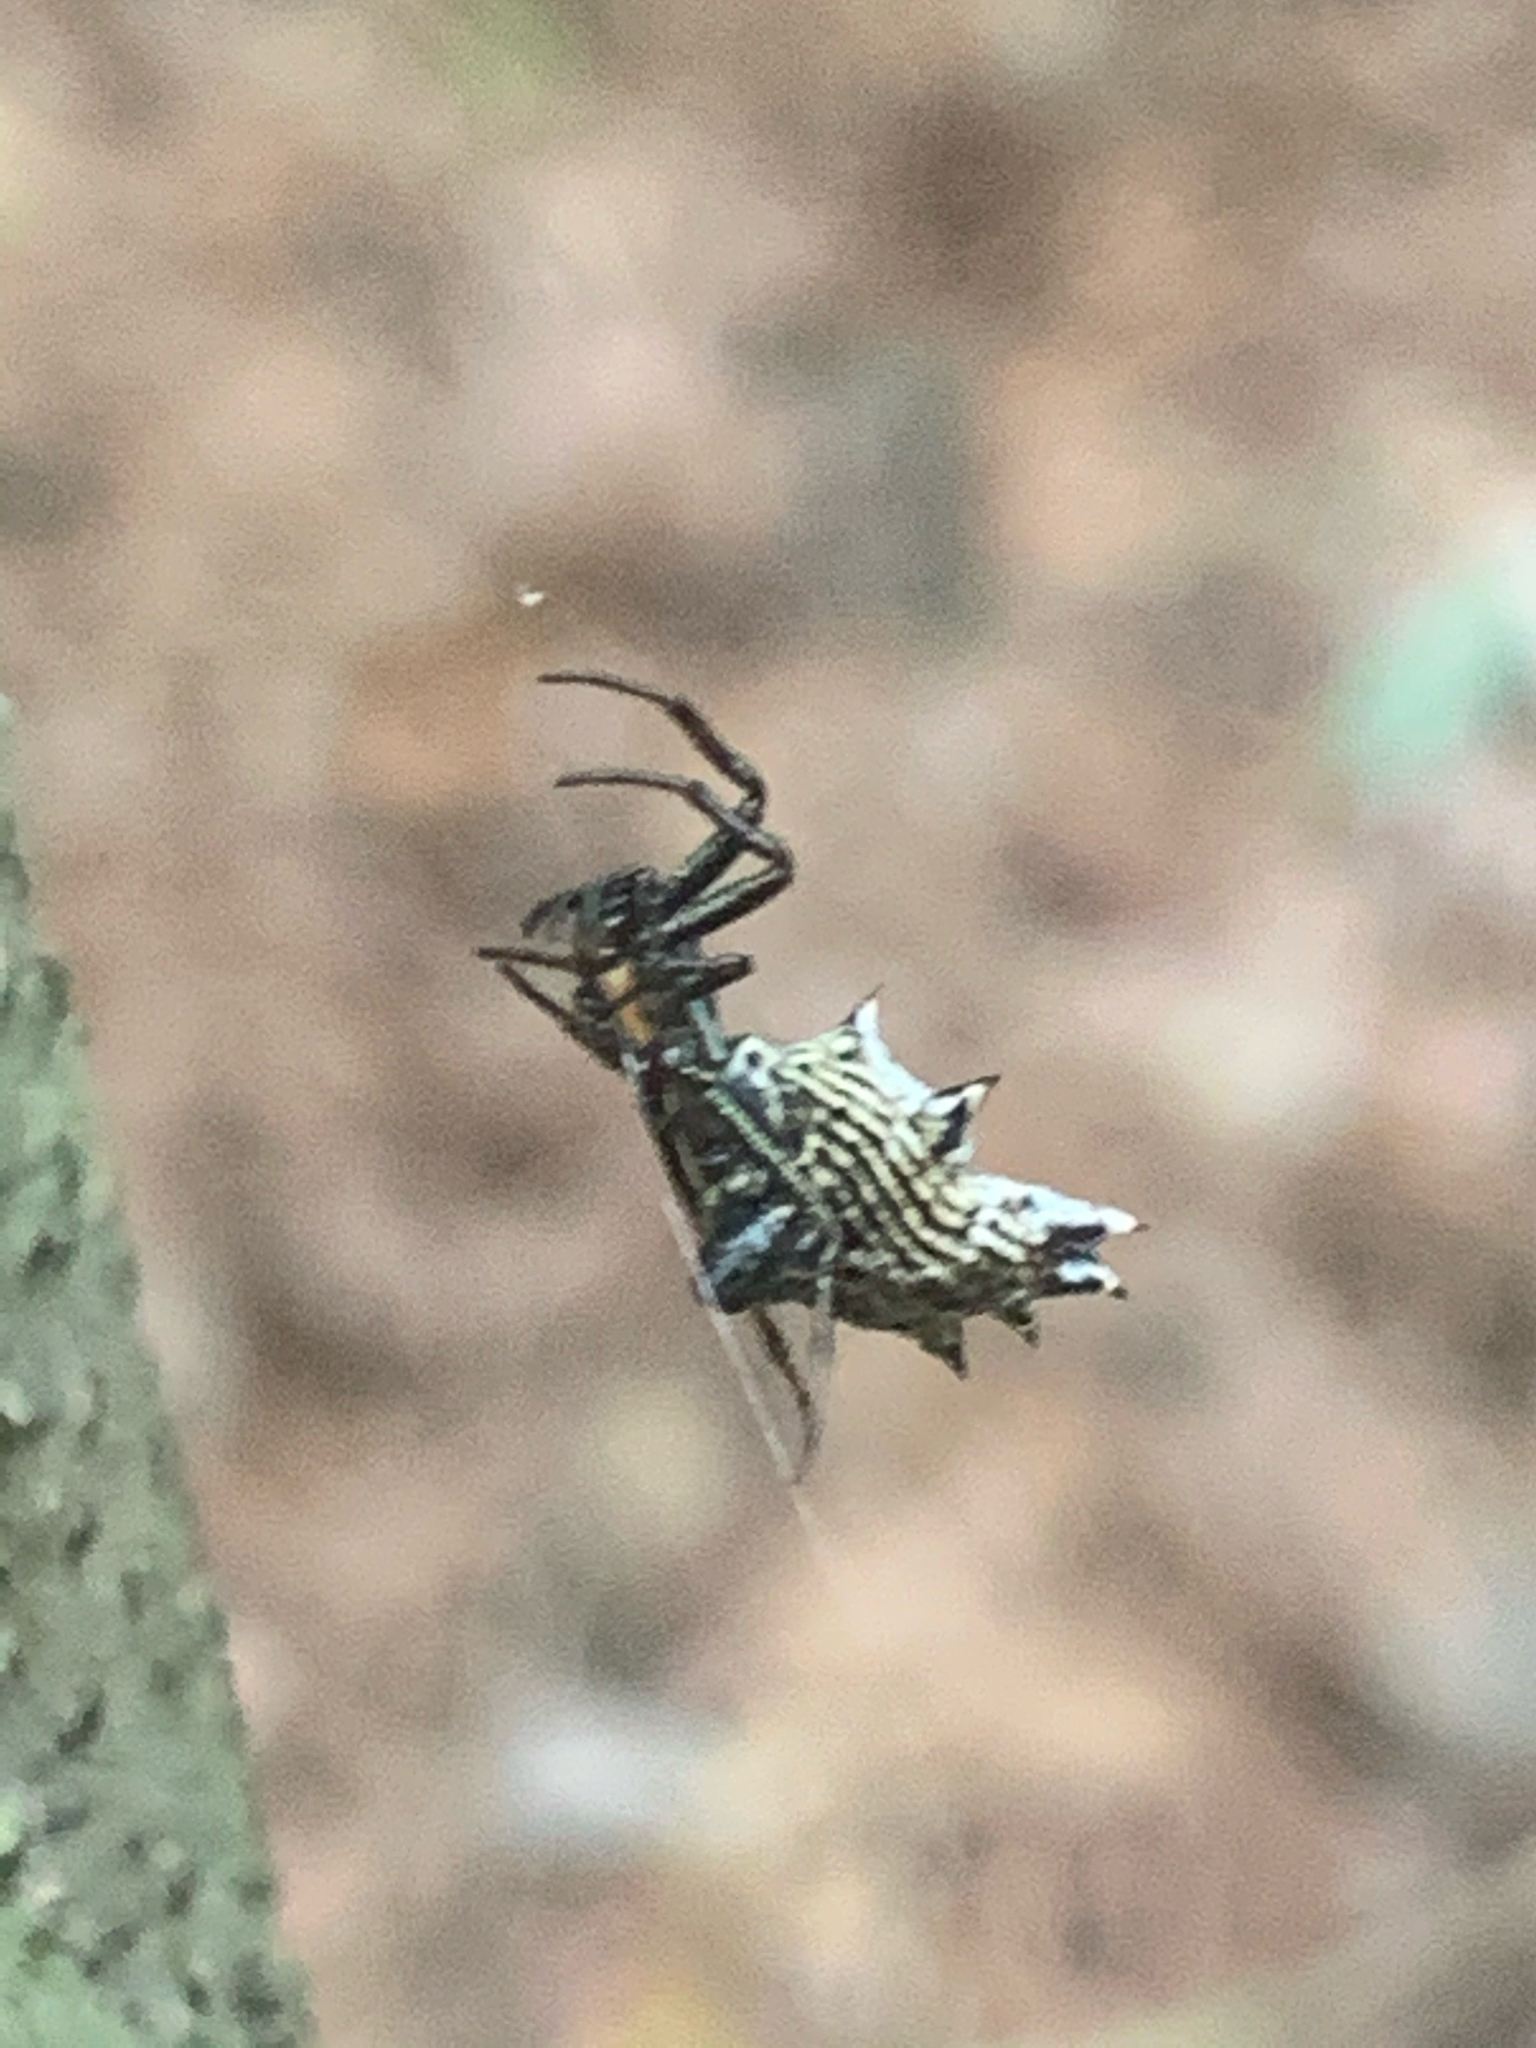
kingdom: Animalia
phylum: Arthropoda
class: Arachnida
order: Araneae
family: Araneidae
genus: Micrathena
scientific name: Micrathena gracilis
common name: Orb weavers
